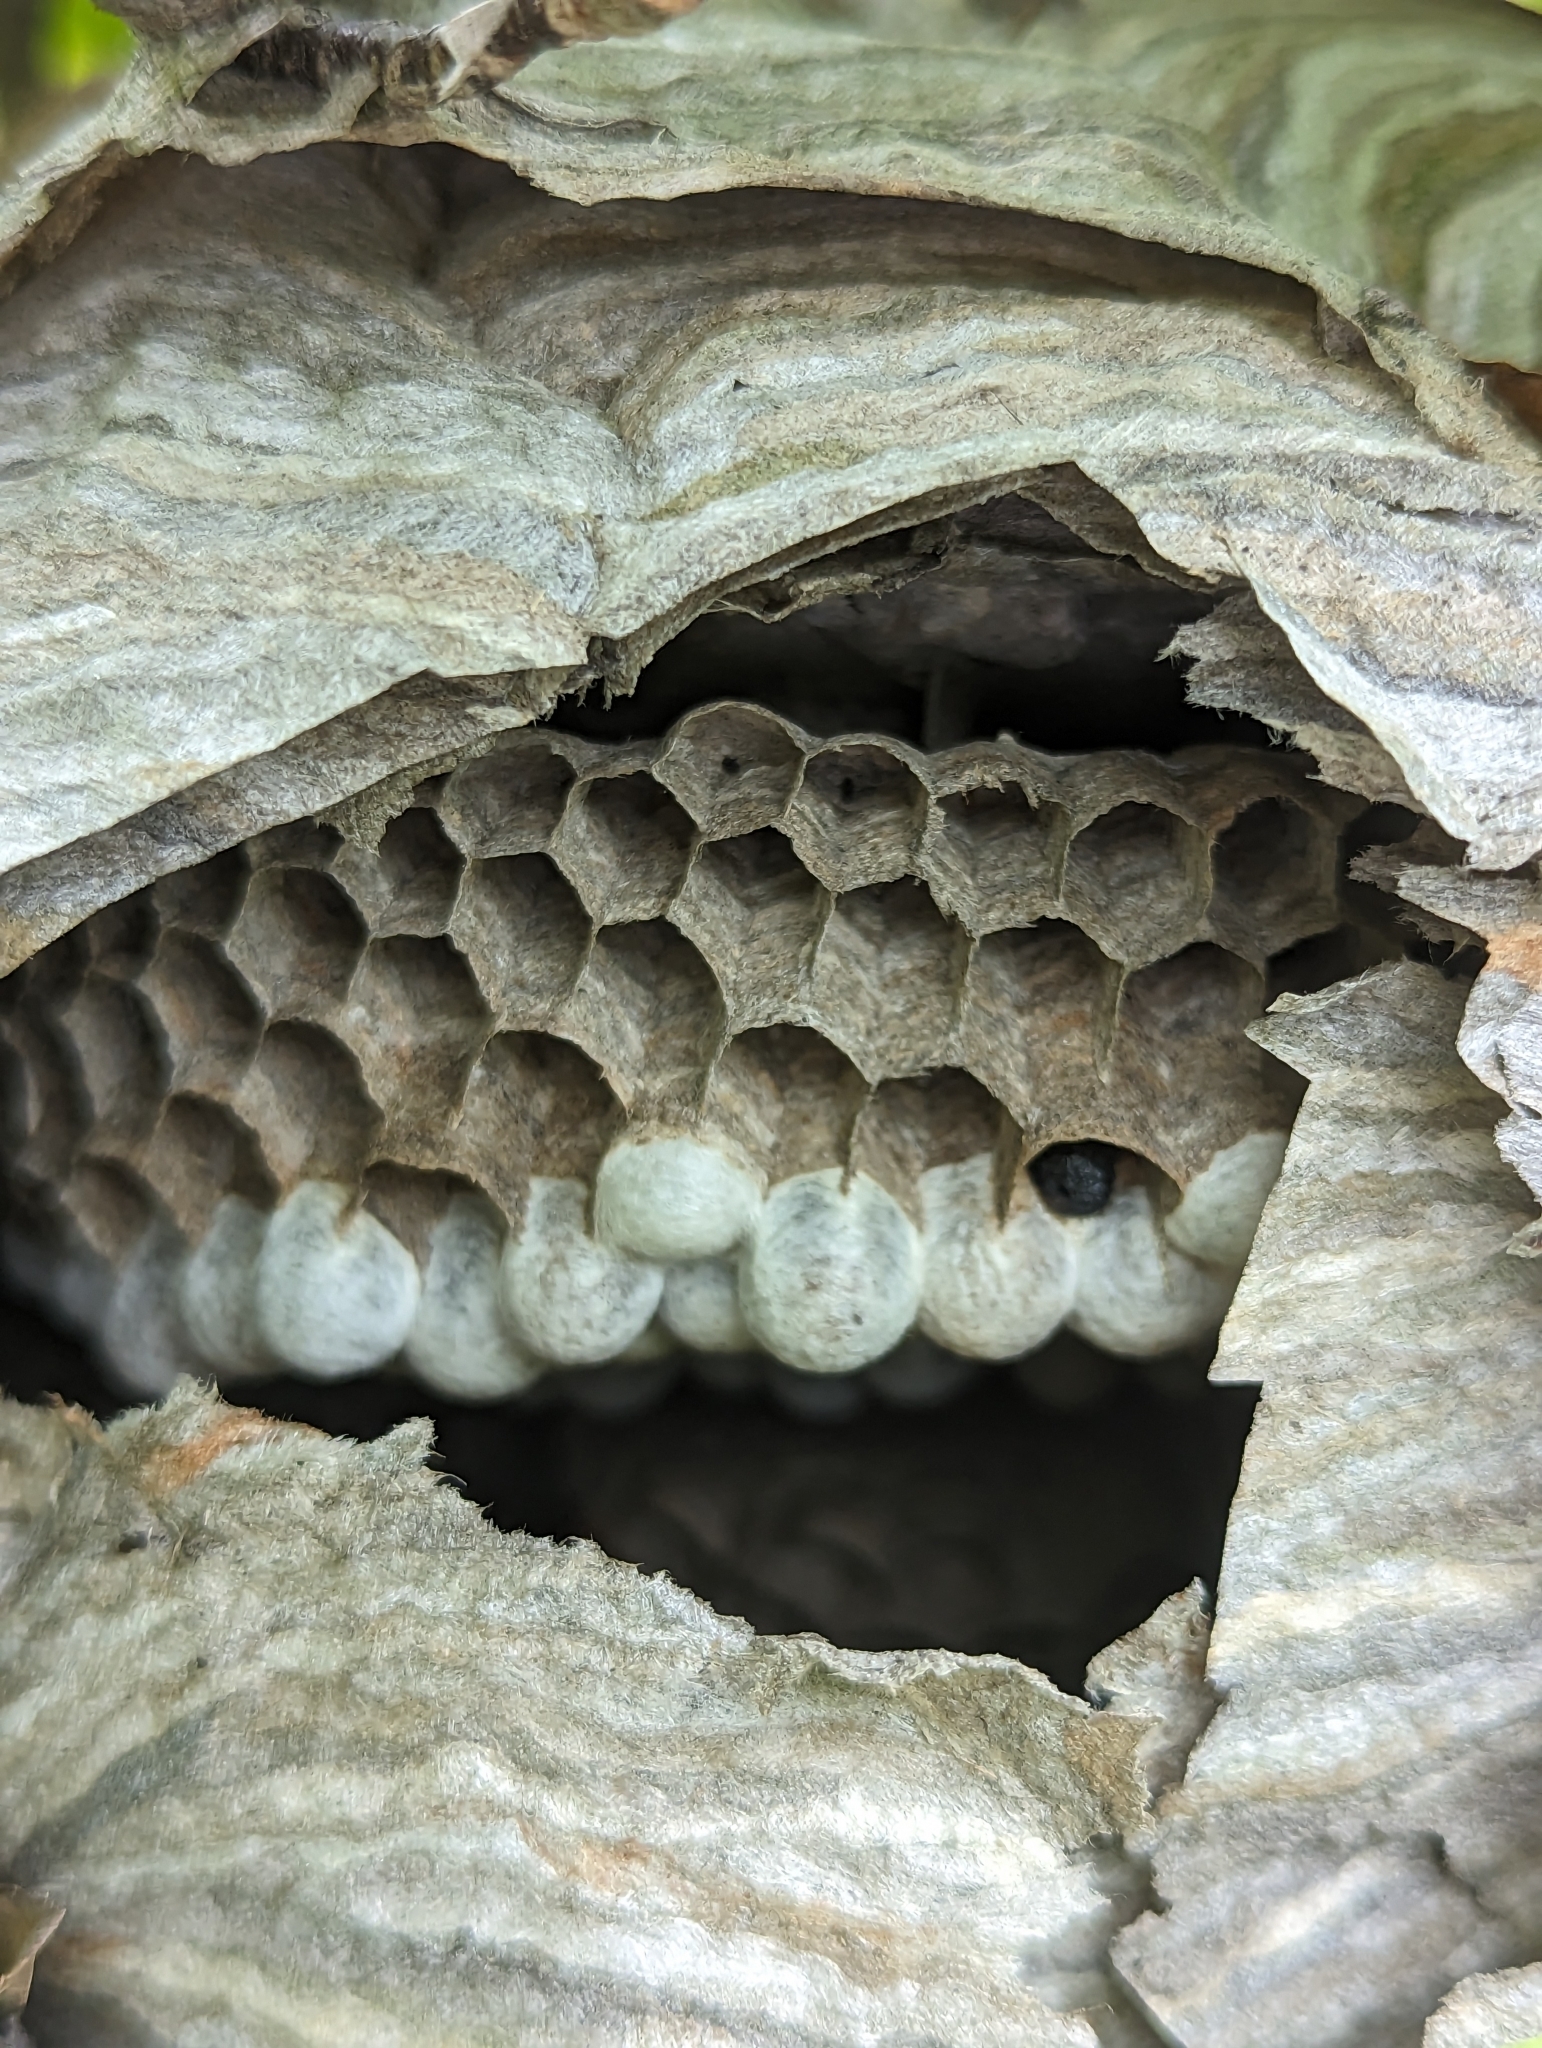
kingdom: Animalia
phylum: Arthropoda
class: Insecta
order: Hymenoptera
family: Vespidae
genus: Dolichovespula
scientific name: Dolichovespula maculata
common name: Bald-faced hornet
